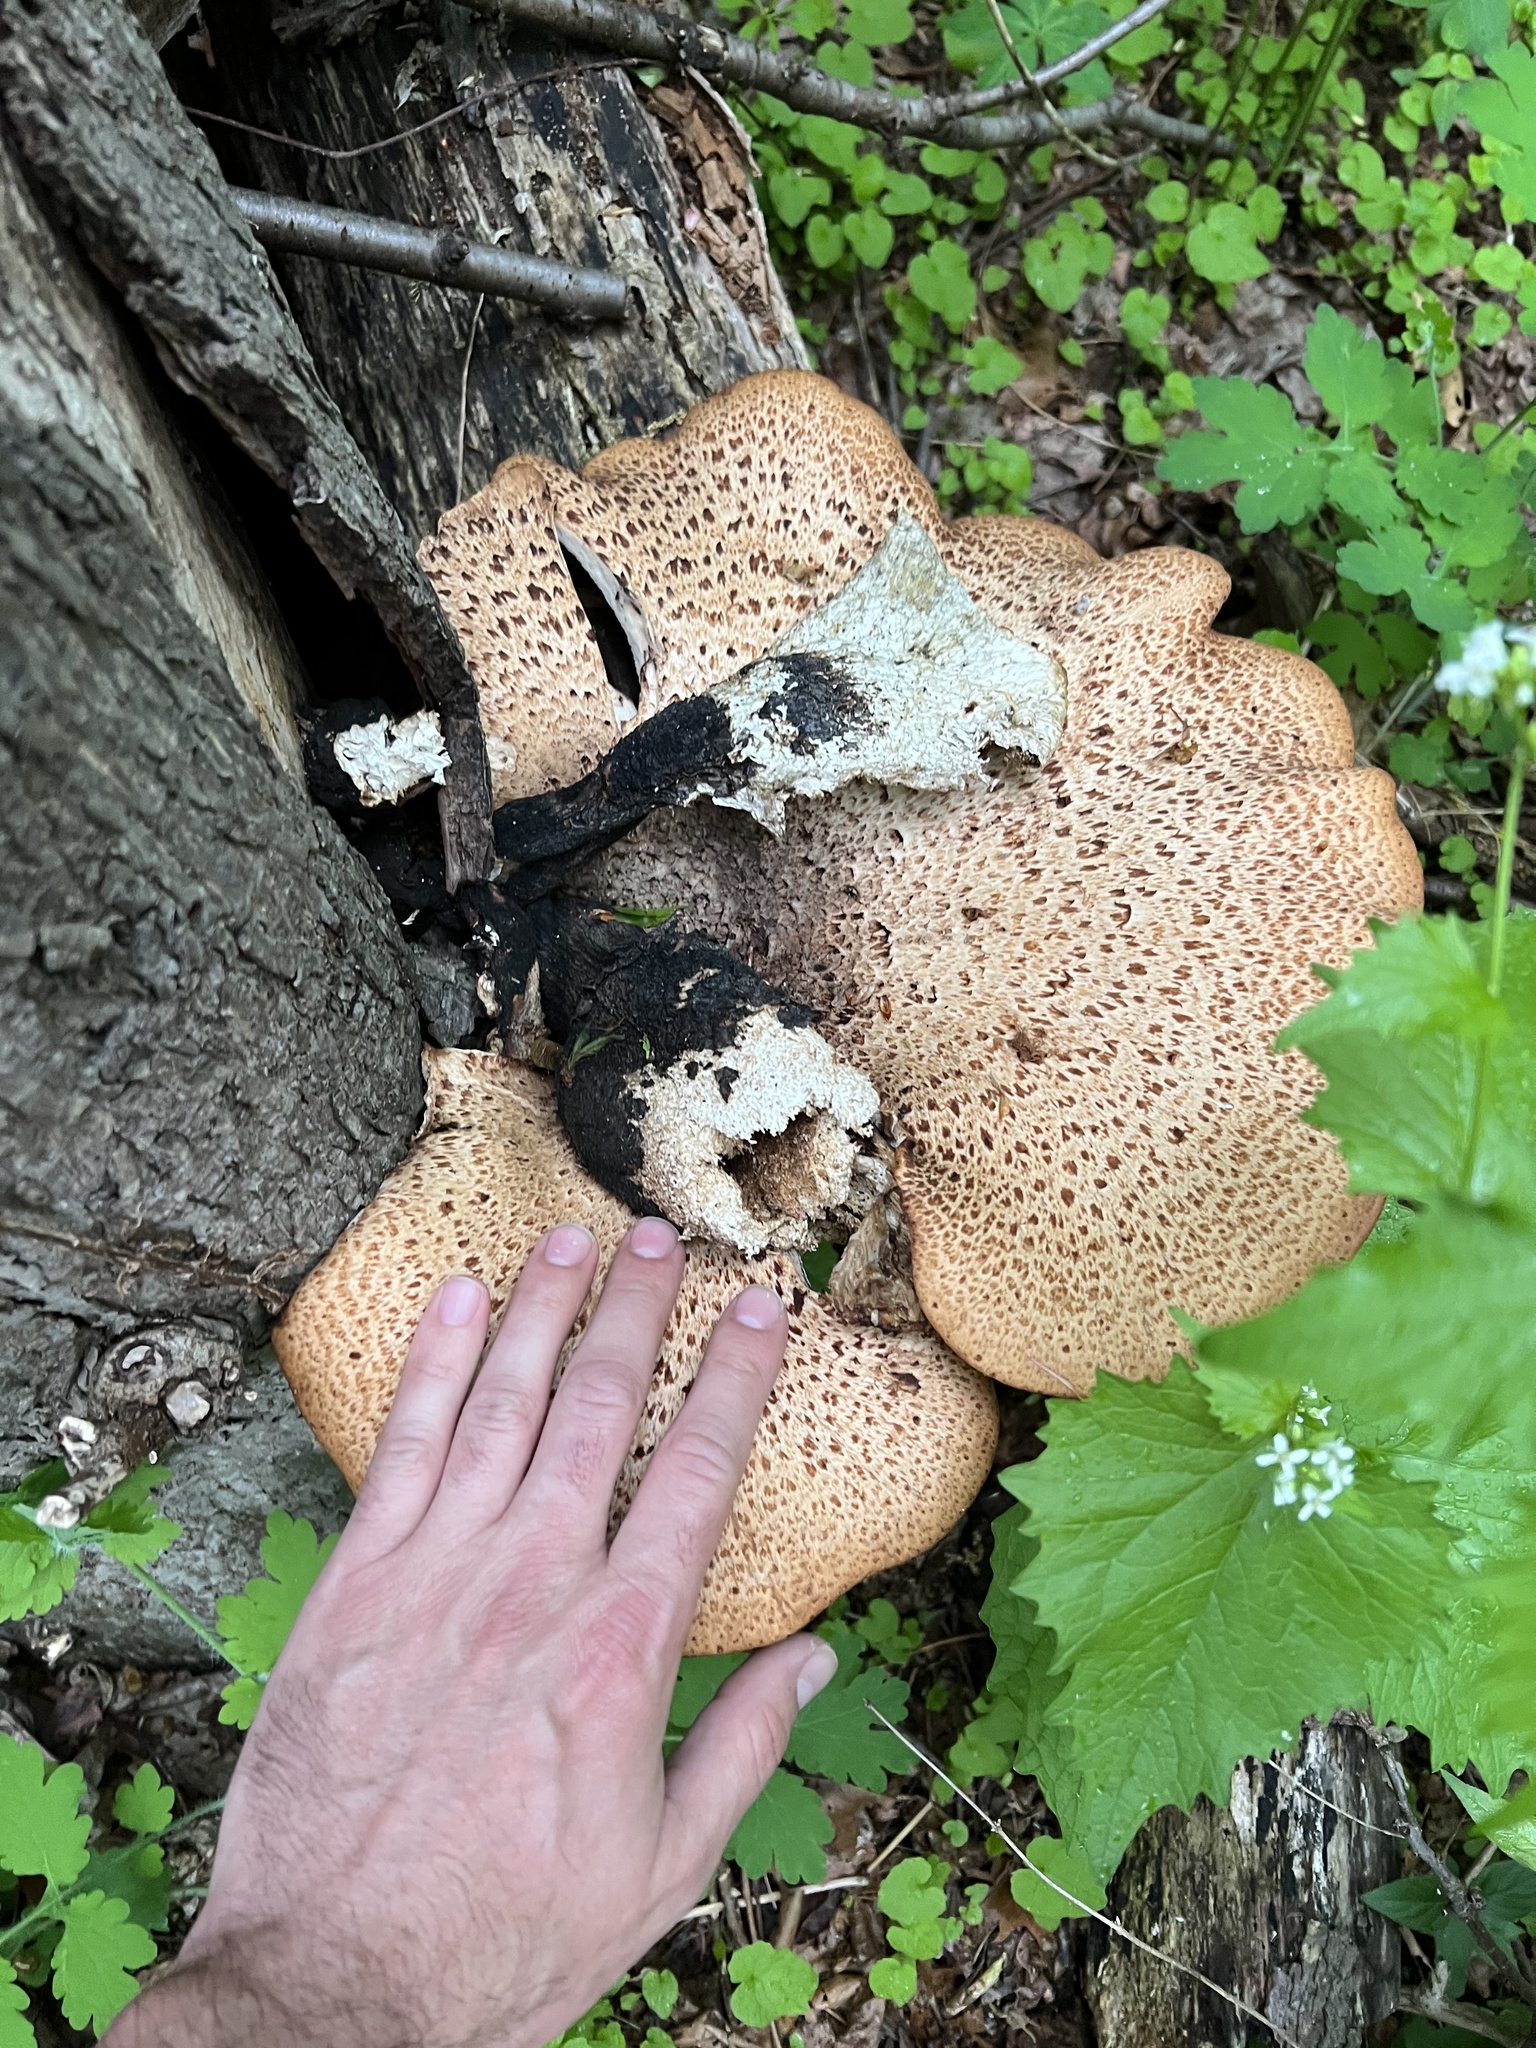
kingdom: Fungi
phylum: Basidiomycota
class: Agaricomycetes
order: Polyporales
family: Polyporaceae
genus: Cerioporus
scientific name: Cerioporus squamosus
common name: Dryad's saddle
